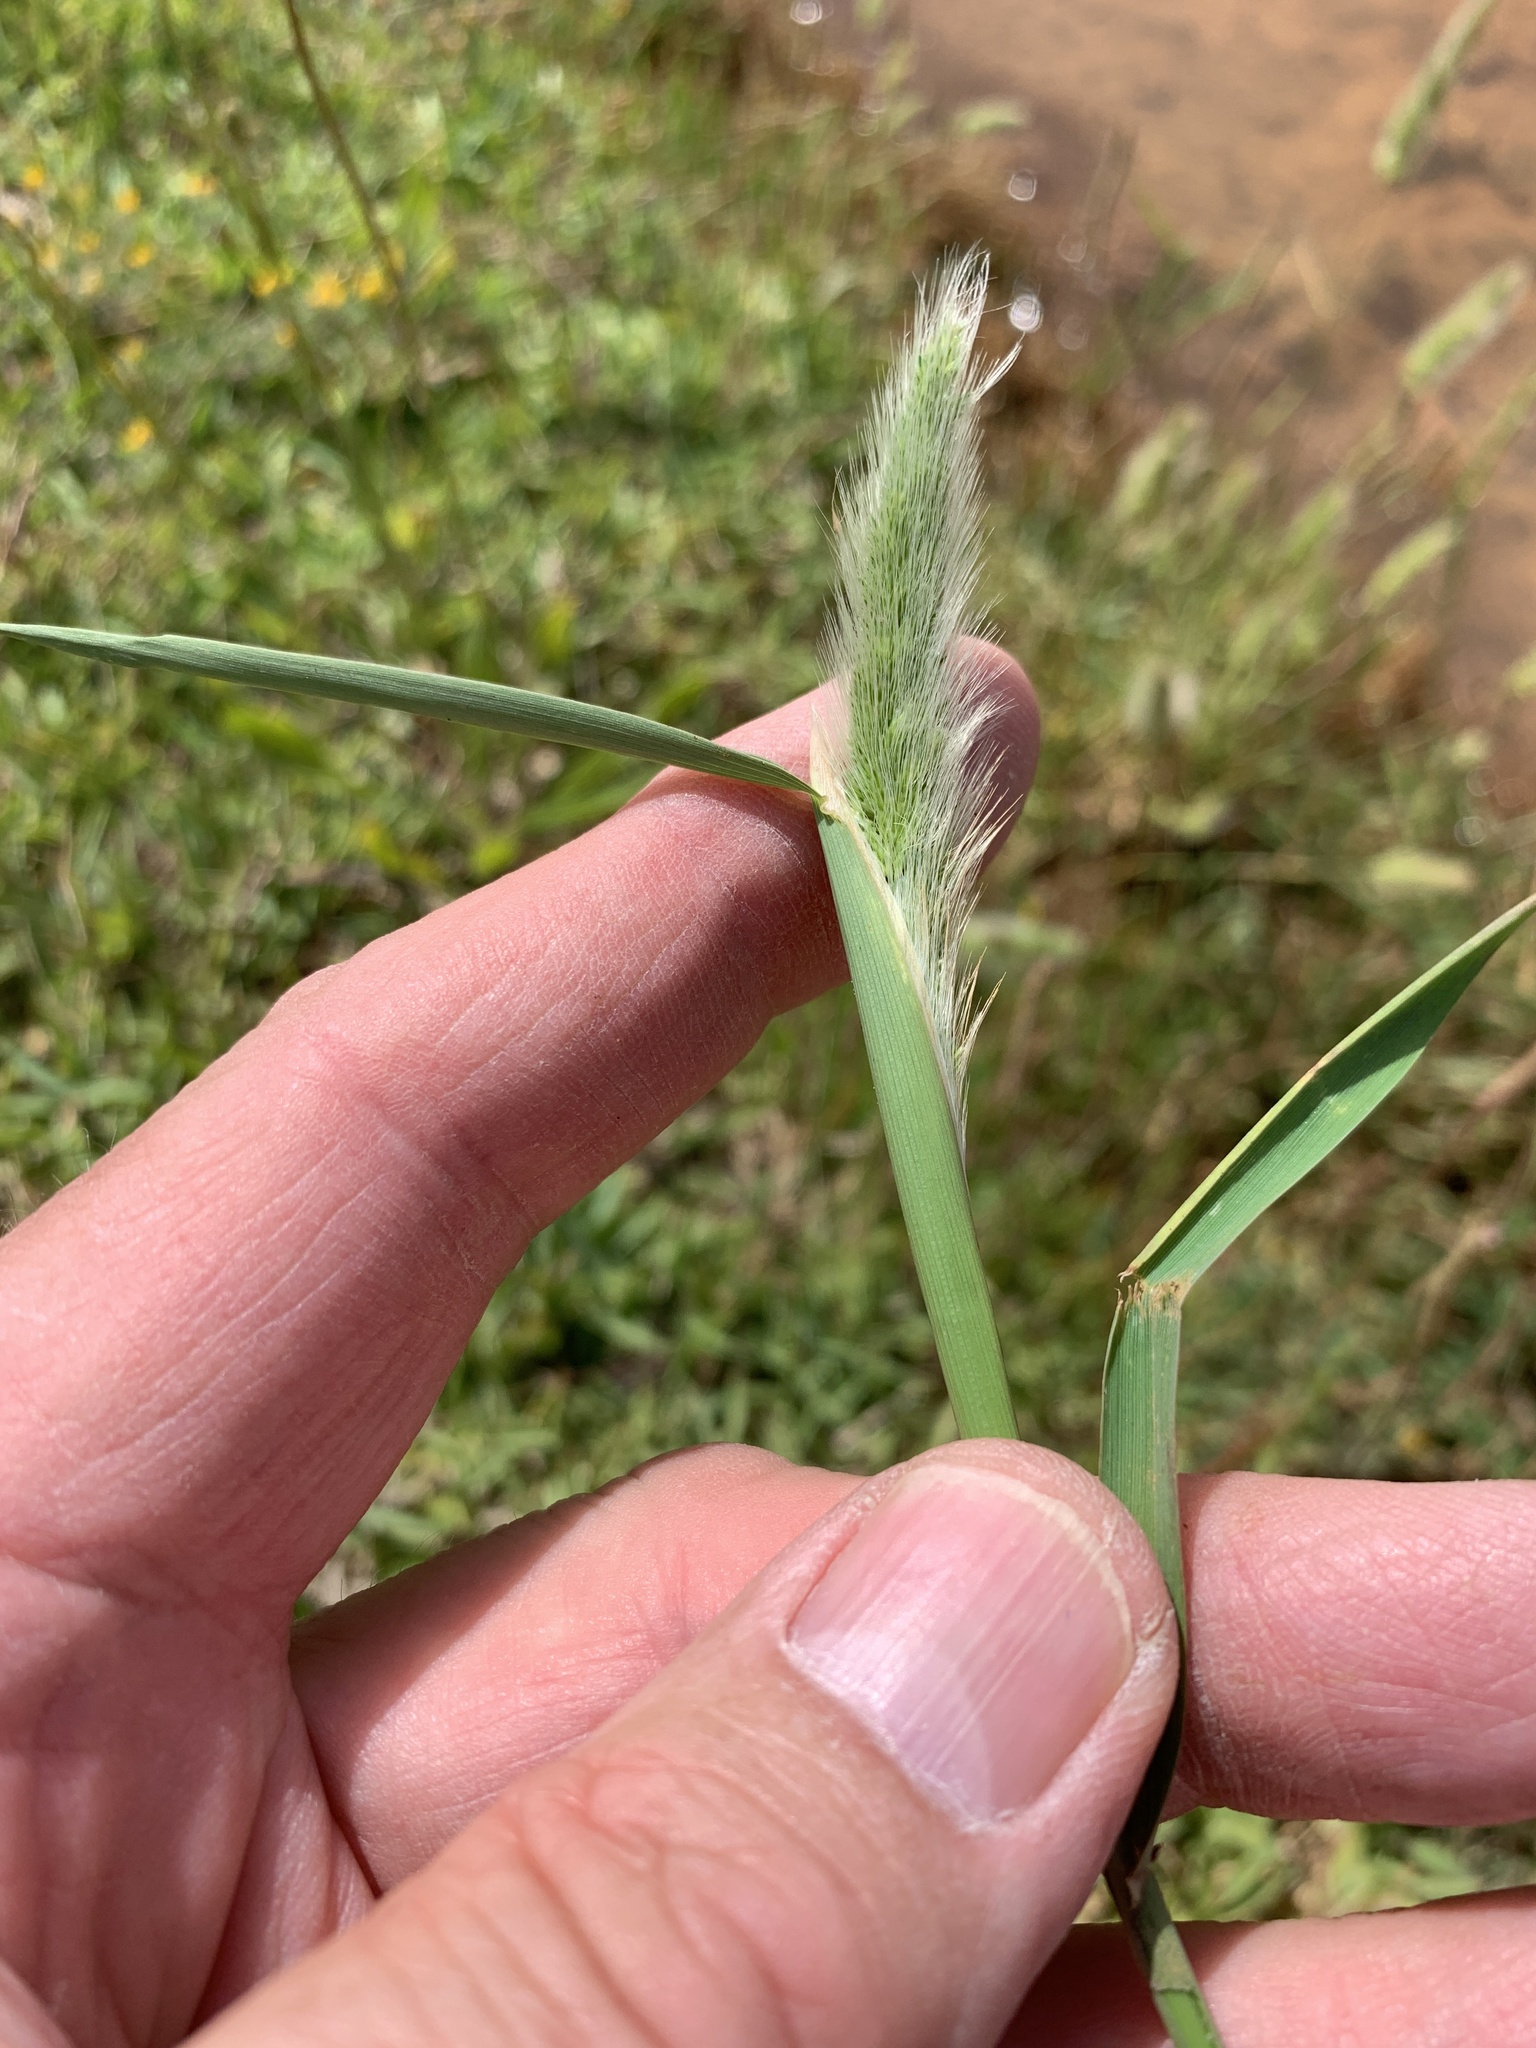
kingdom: Plantae
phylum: Tracheophyta
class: Liliopsida
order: Poales
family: Poaceae
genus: Polypogon
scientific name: Polypogon monspeliensis
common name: Annual rabbitsfoot grass
